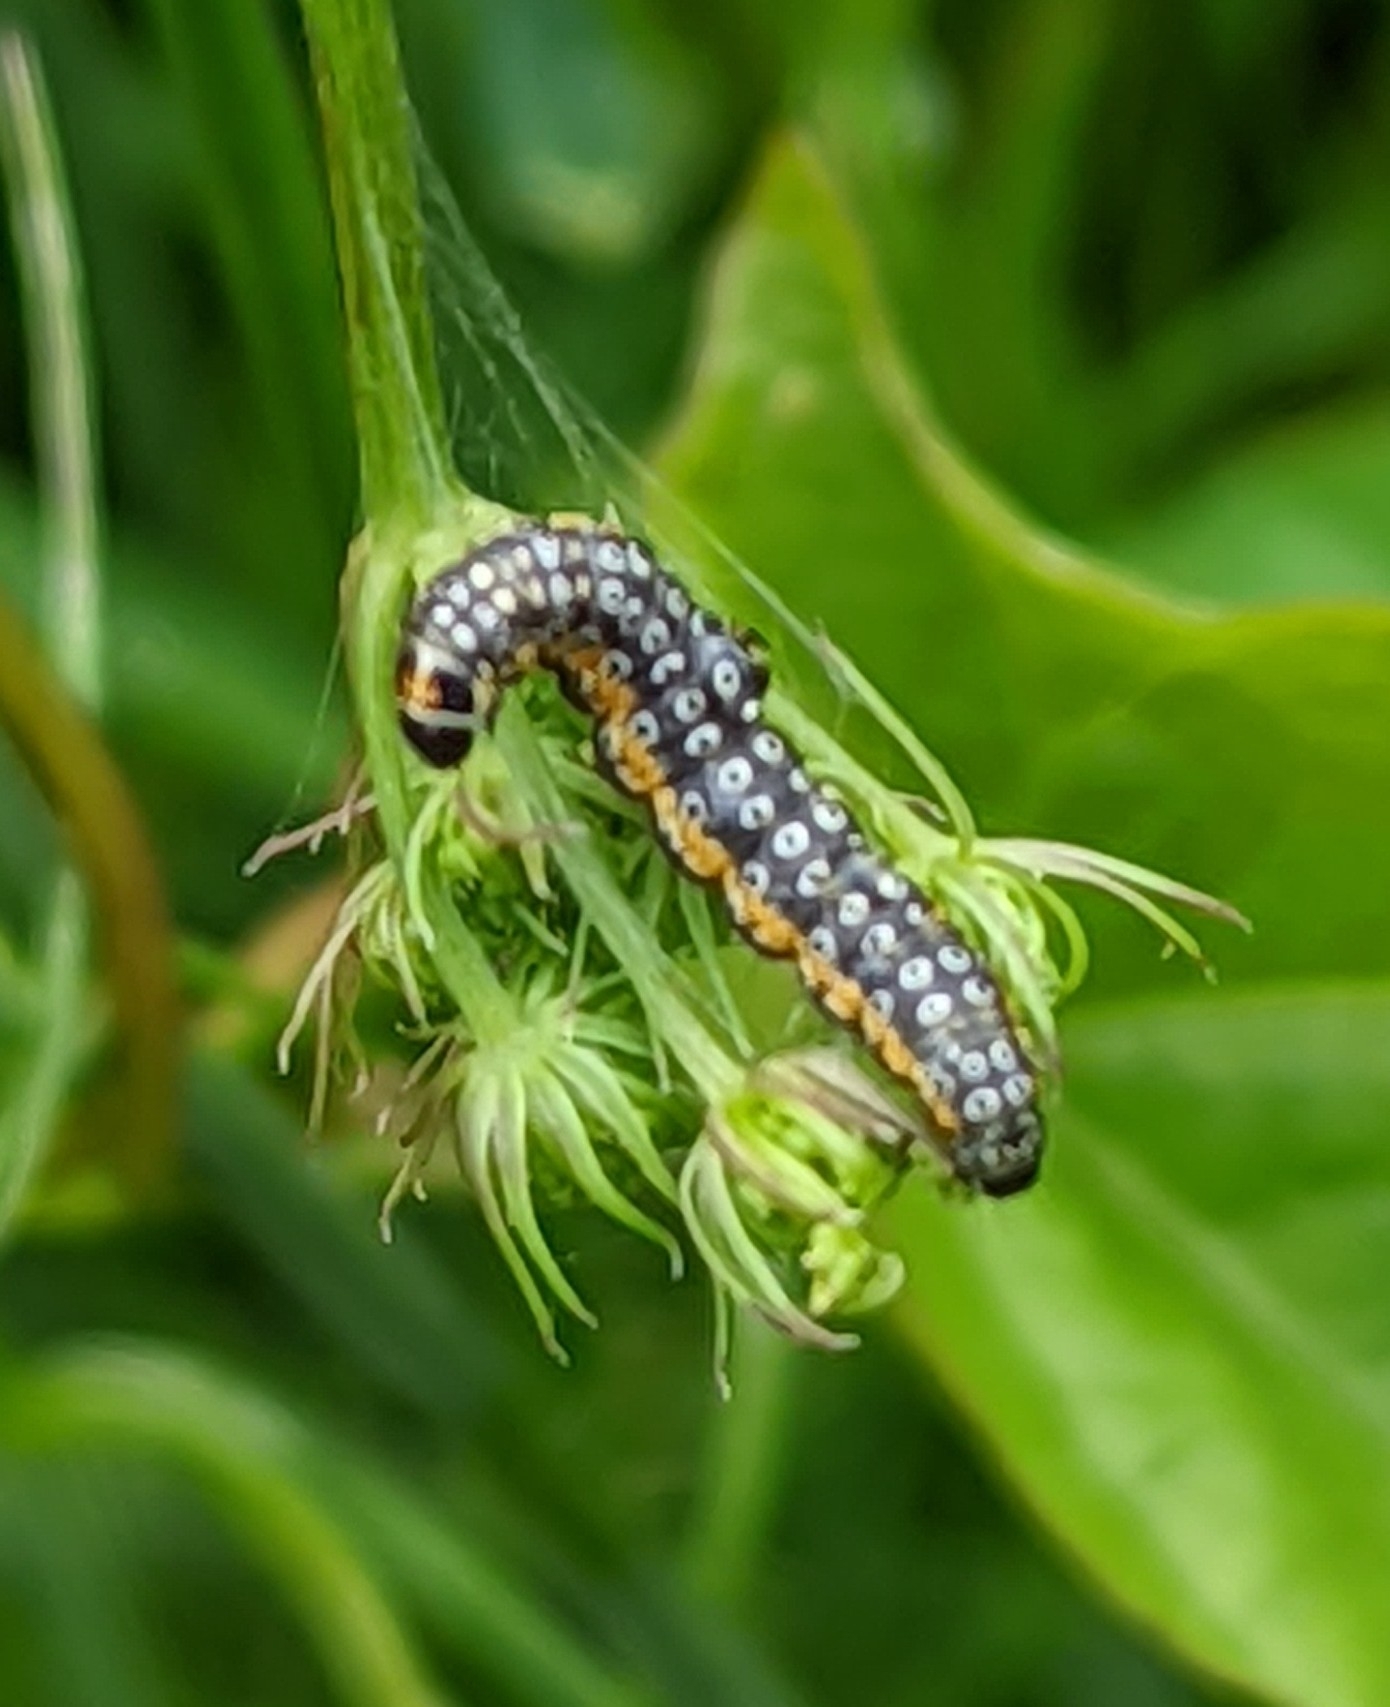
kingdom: Animalia
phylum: Arthropoda
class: Insecta
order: Lepidoptera
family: Depressariidae
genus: Depressaria
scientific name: Depressaria apiella
